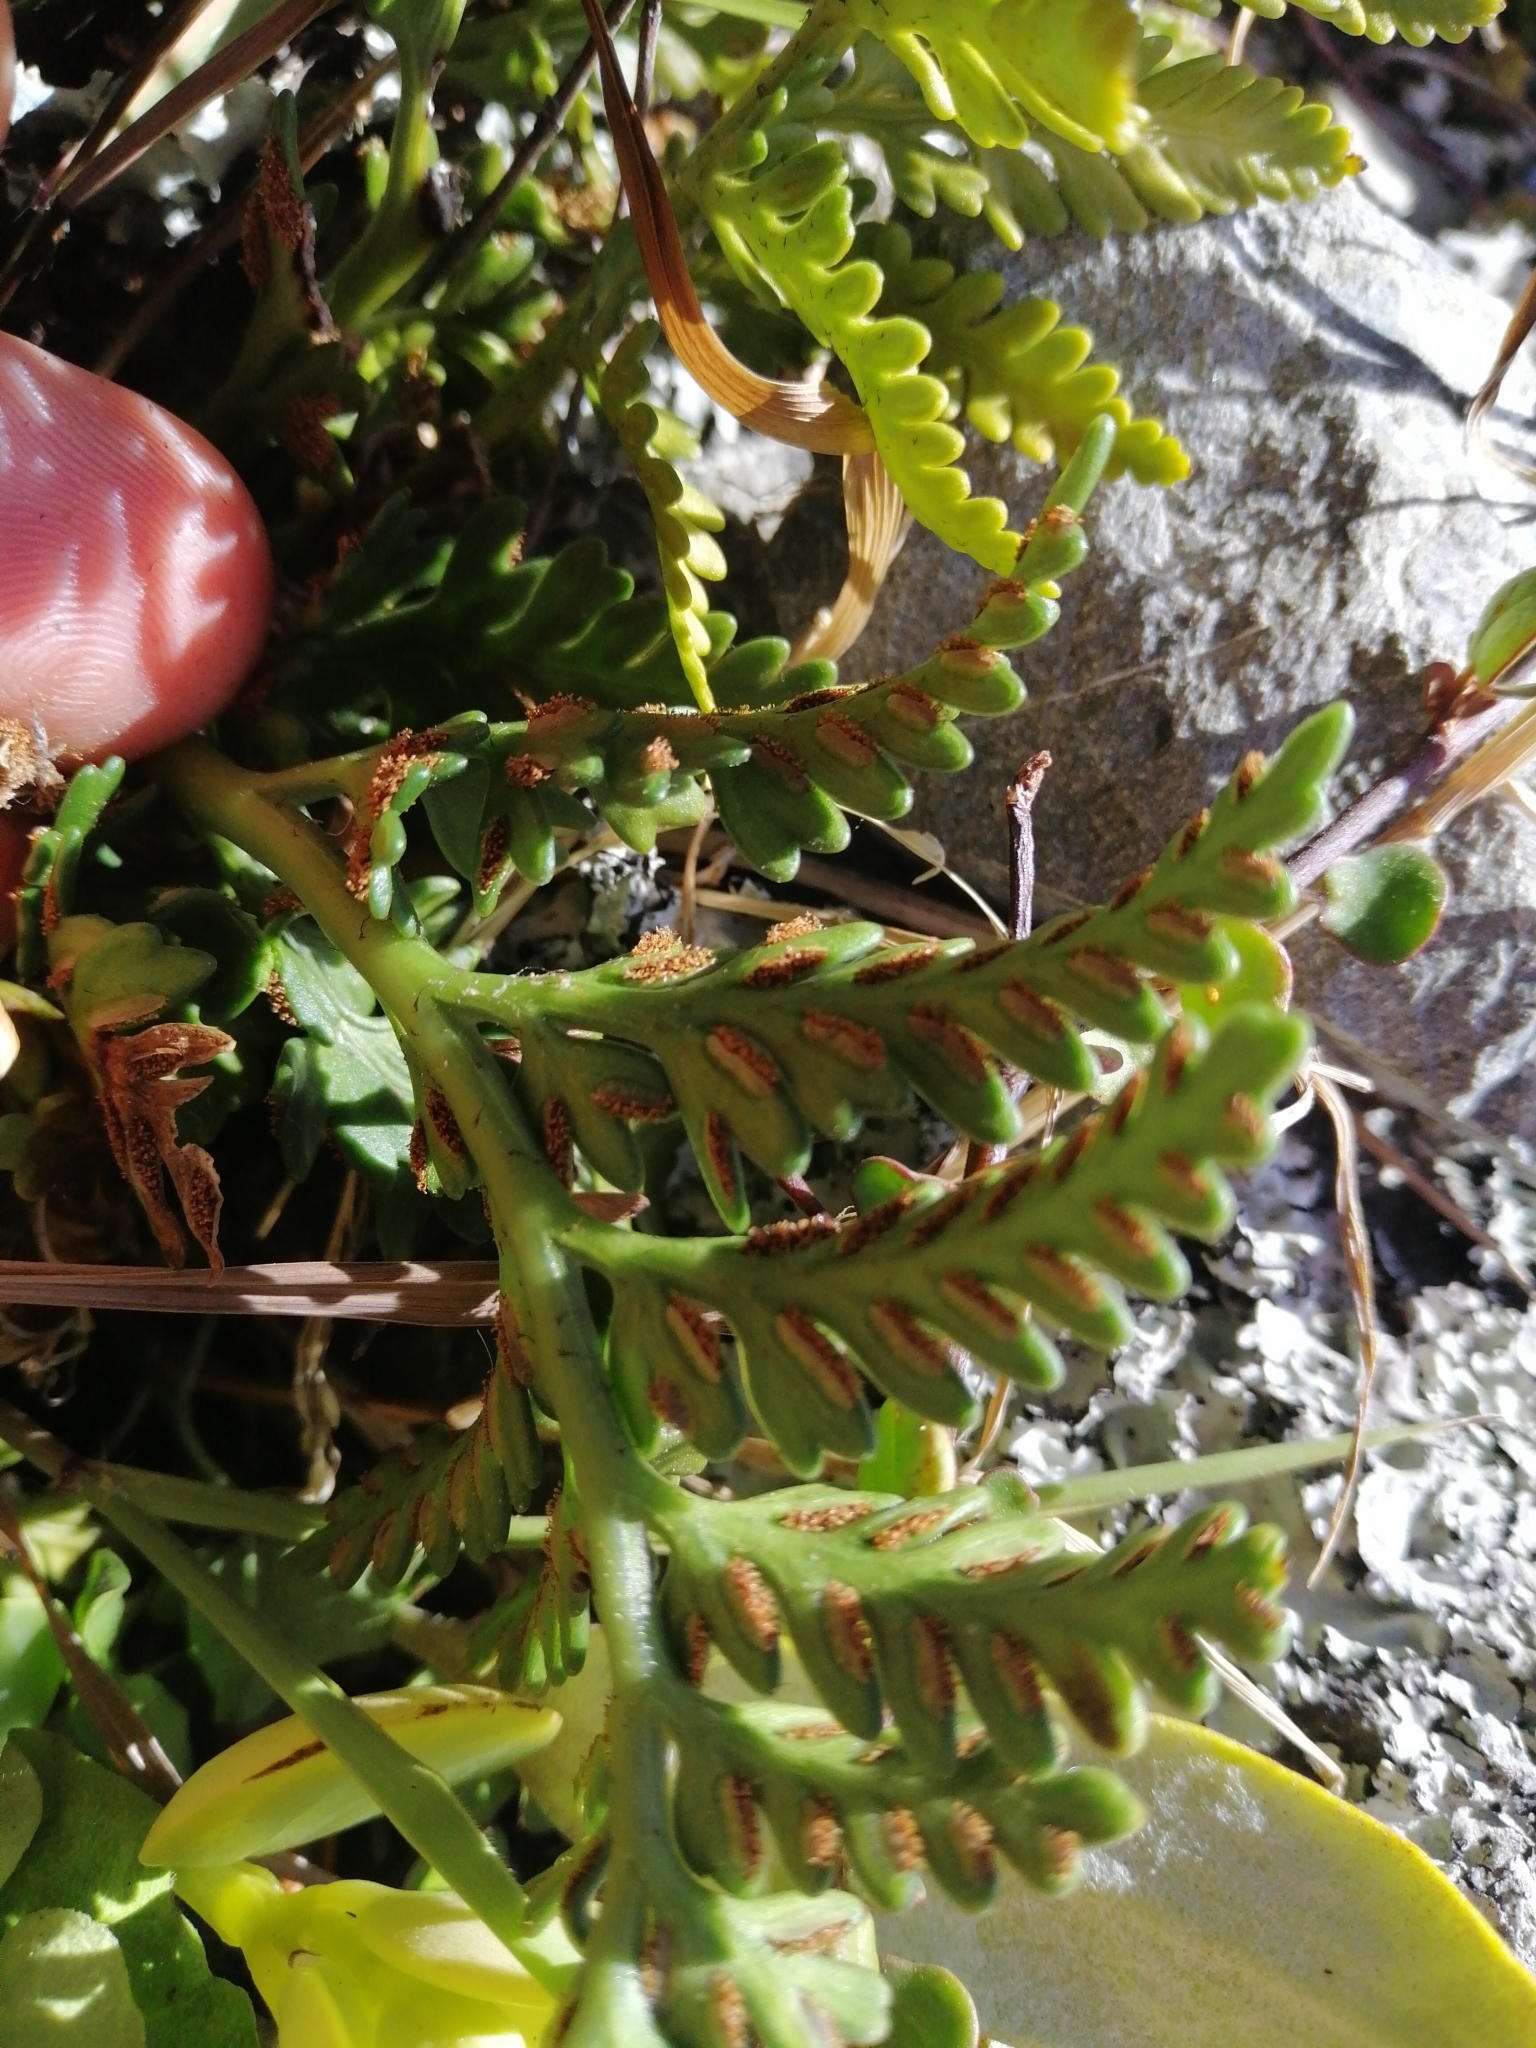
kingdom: Plantae
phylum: Tracheophyta
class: Polypodiopsida
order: Polypodiales
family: Aspleniaceae
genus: Asplenium
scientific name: Asplenium appendiculatum
